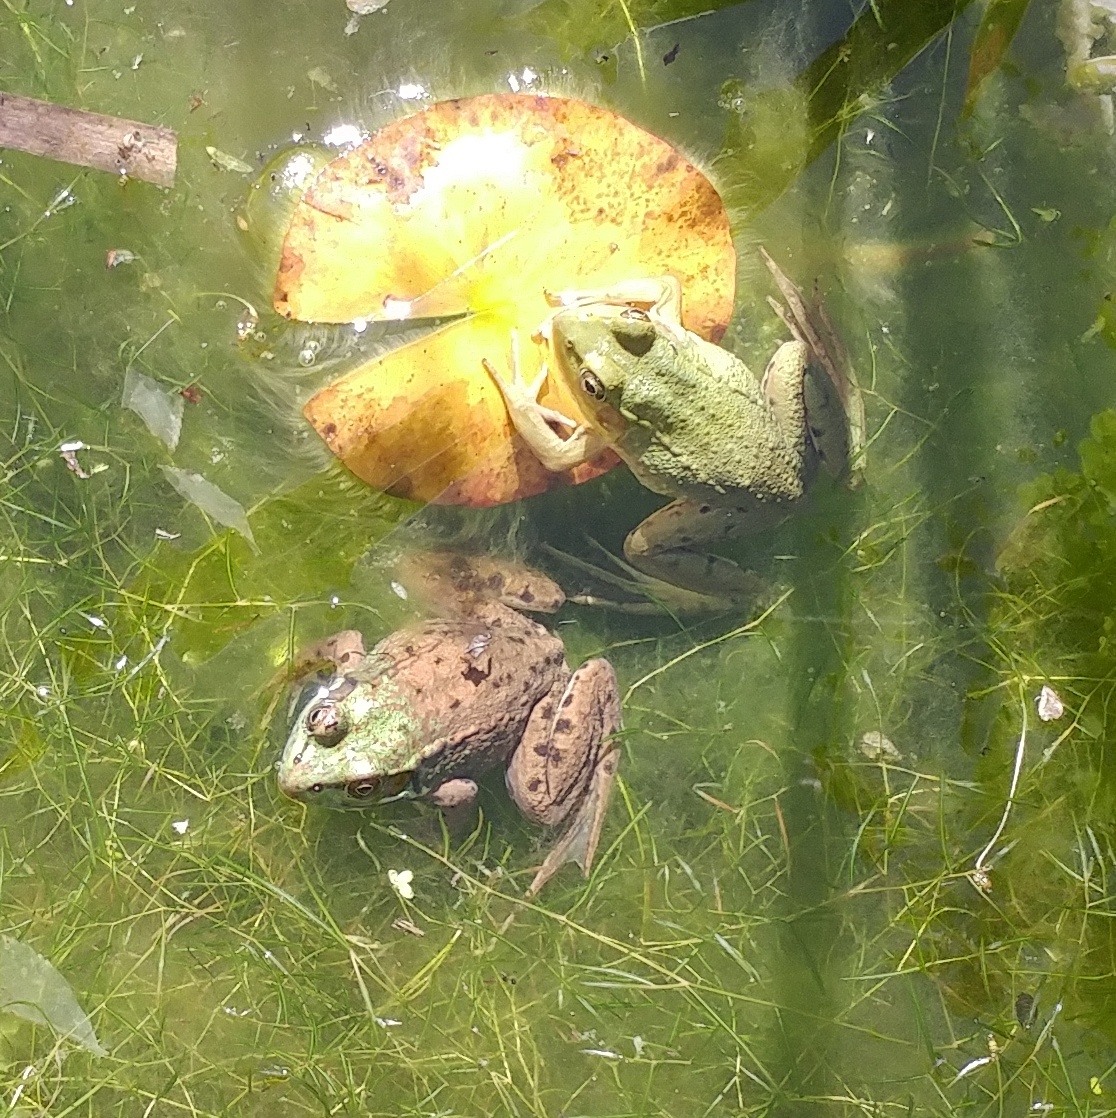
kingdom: Animalia
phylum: Chordata
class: Amphibia
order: Anura
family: Ranidae
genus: Lithobates
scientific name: Lithobates clamitans
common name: Green frog
